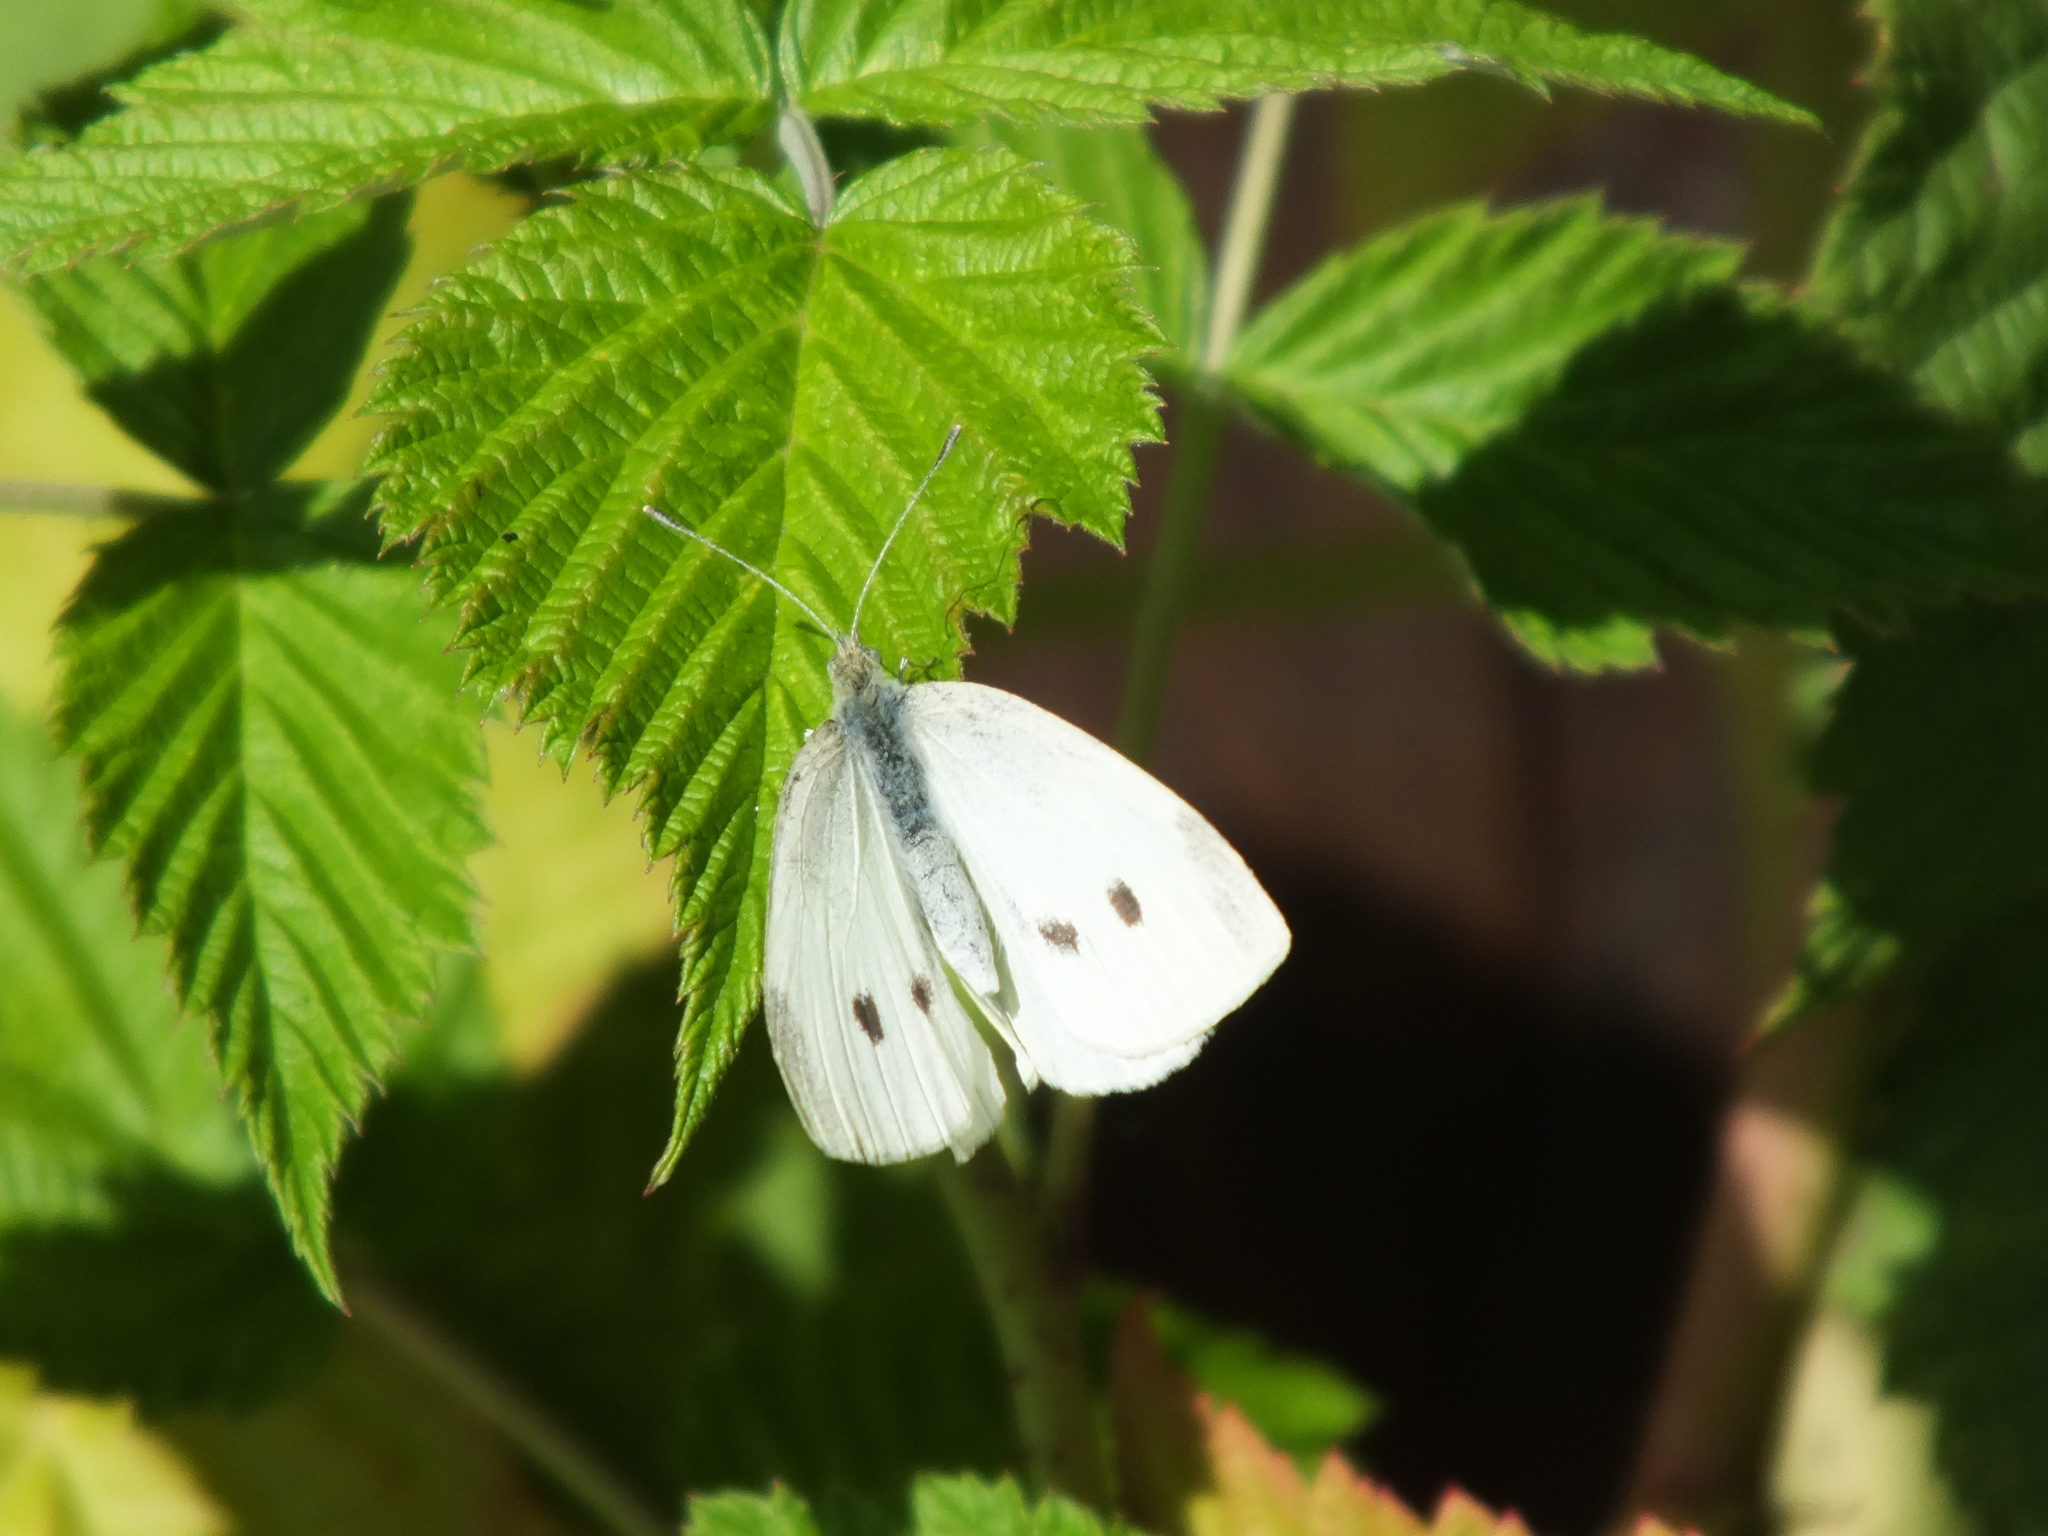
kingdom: Animalia
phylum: Arthropoda
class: Insecta
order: Lepidoptera
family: Pieridae
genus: Pieris
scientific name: Pieris rapae
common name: Small white
